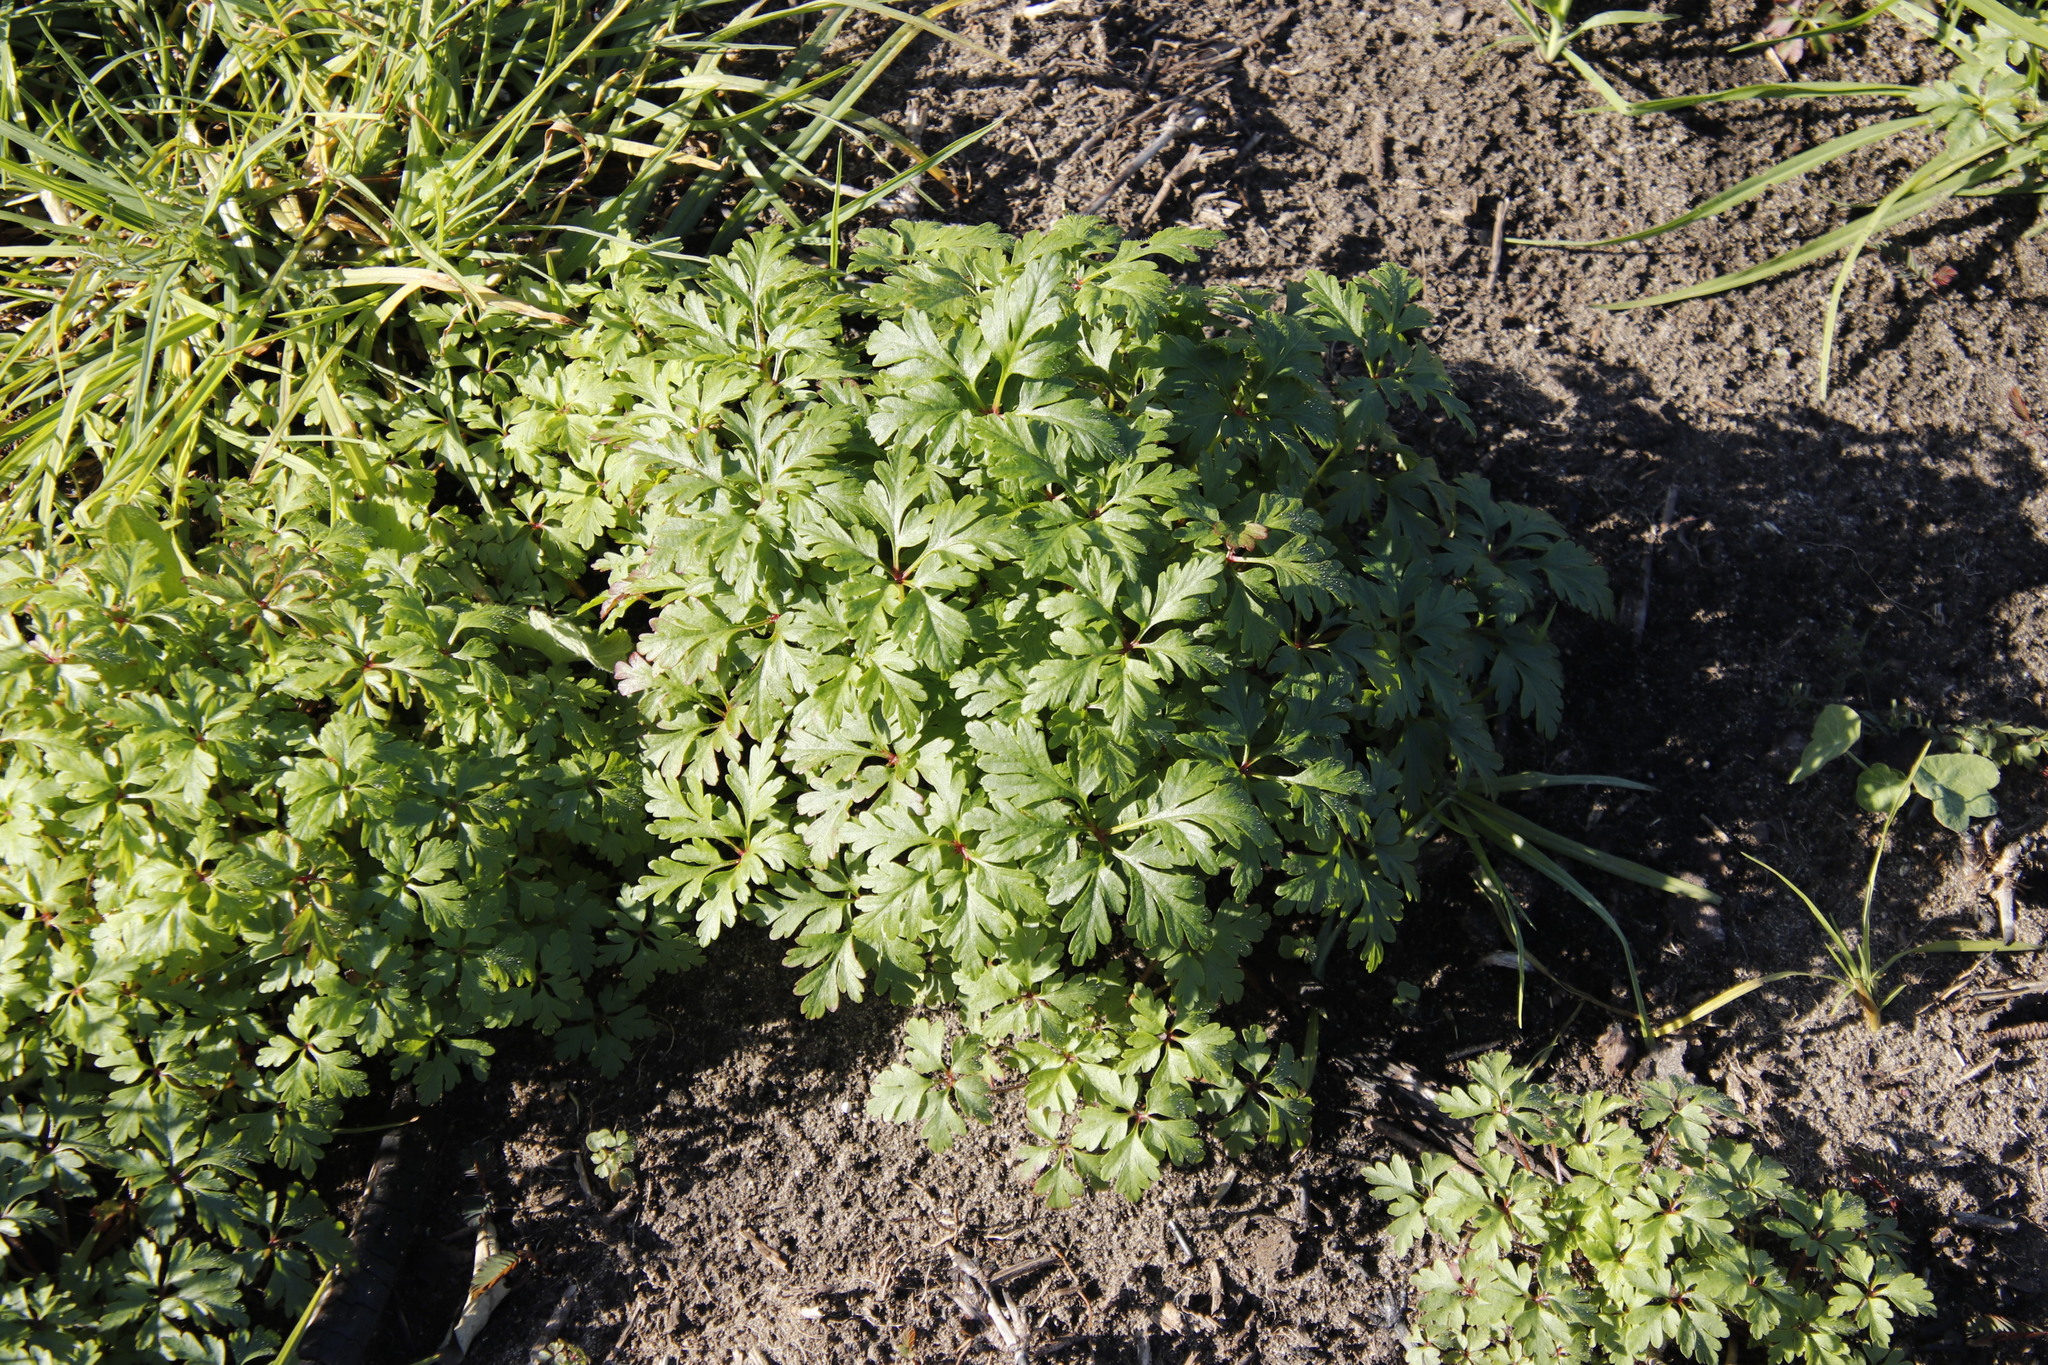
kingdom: Plantae
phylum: Tracheophyta
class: Magnoliopsida
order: Geraniales
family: Geraniaceae
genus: Geranium
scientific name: Geranium purpureum
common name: Little-robin
